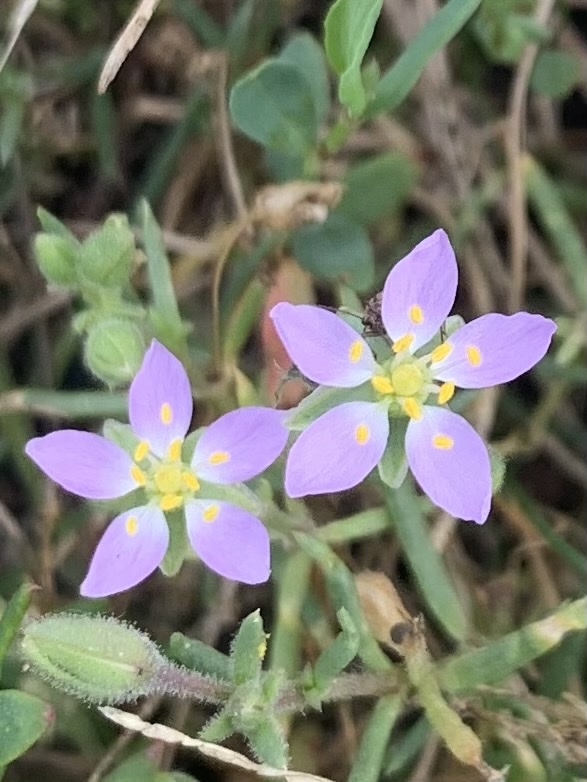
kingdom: Plantae
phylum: Tracheophyta
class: Magnoliopsida
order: Caryophyllales
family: Caryophyllaceae
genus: Spergularia
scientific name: Spergularia rubra
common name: Red sand-spurrey
